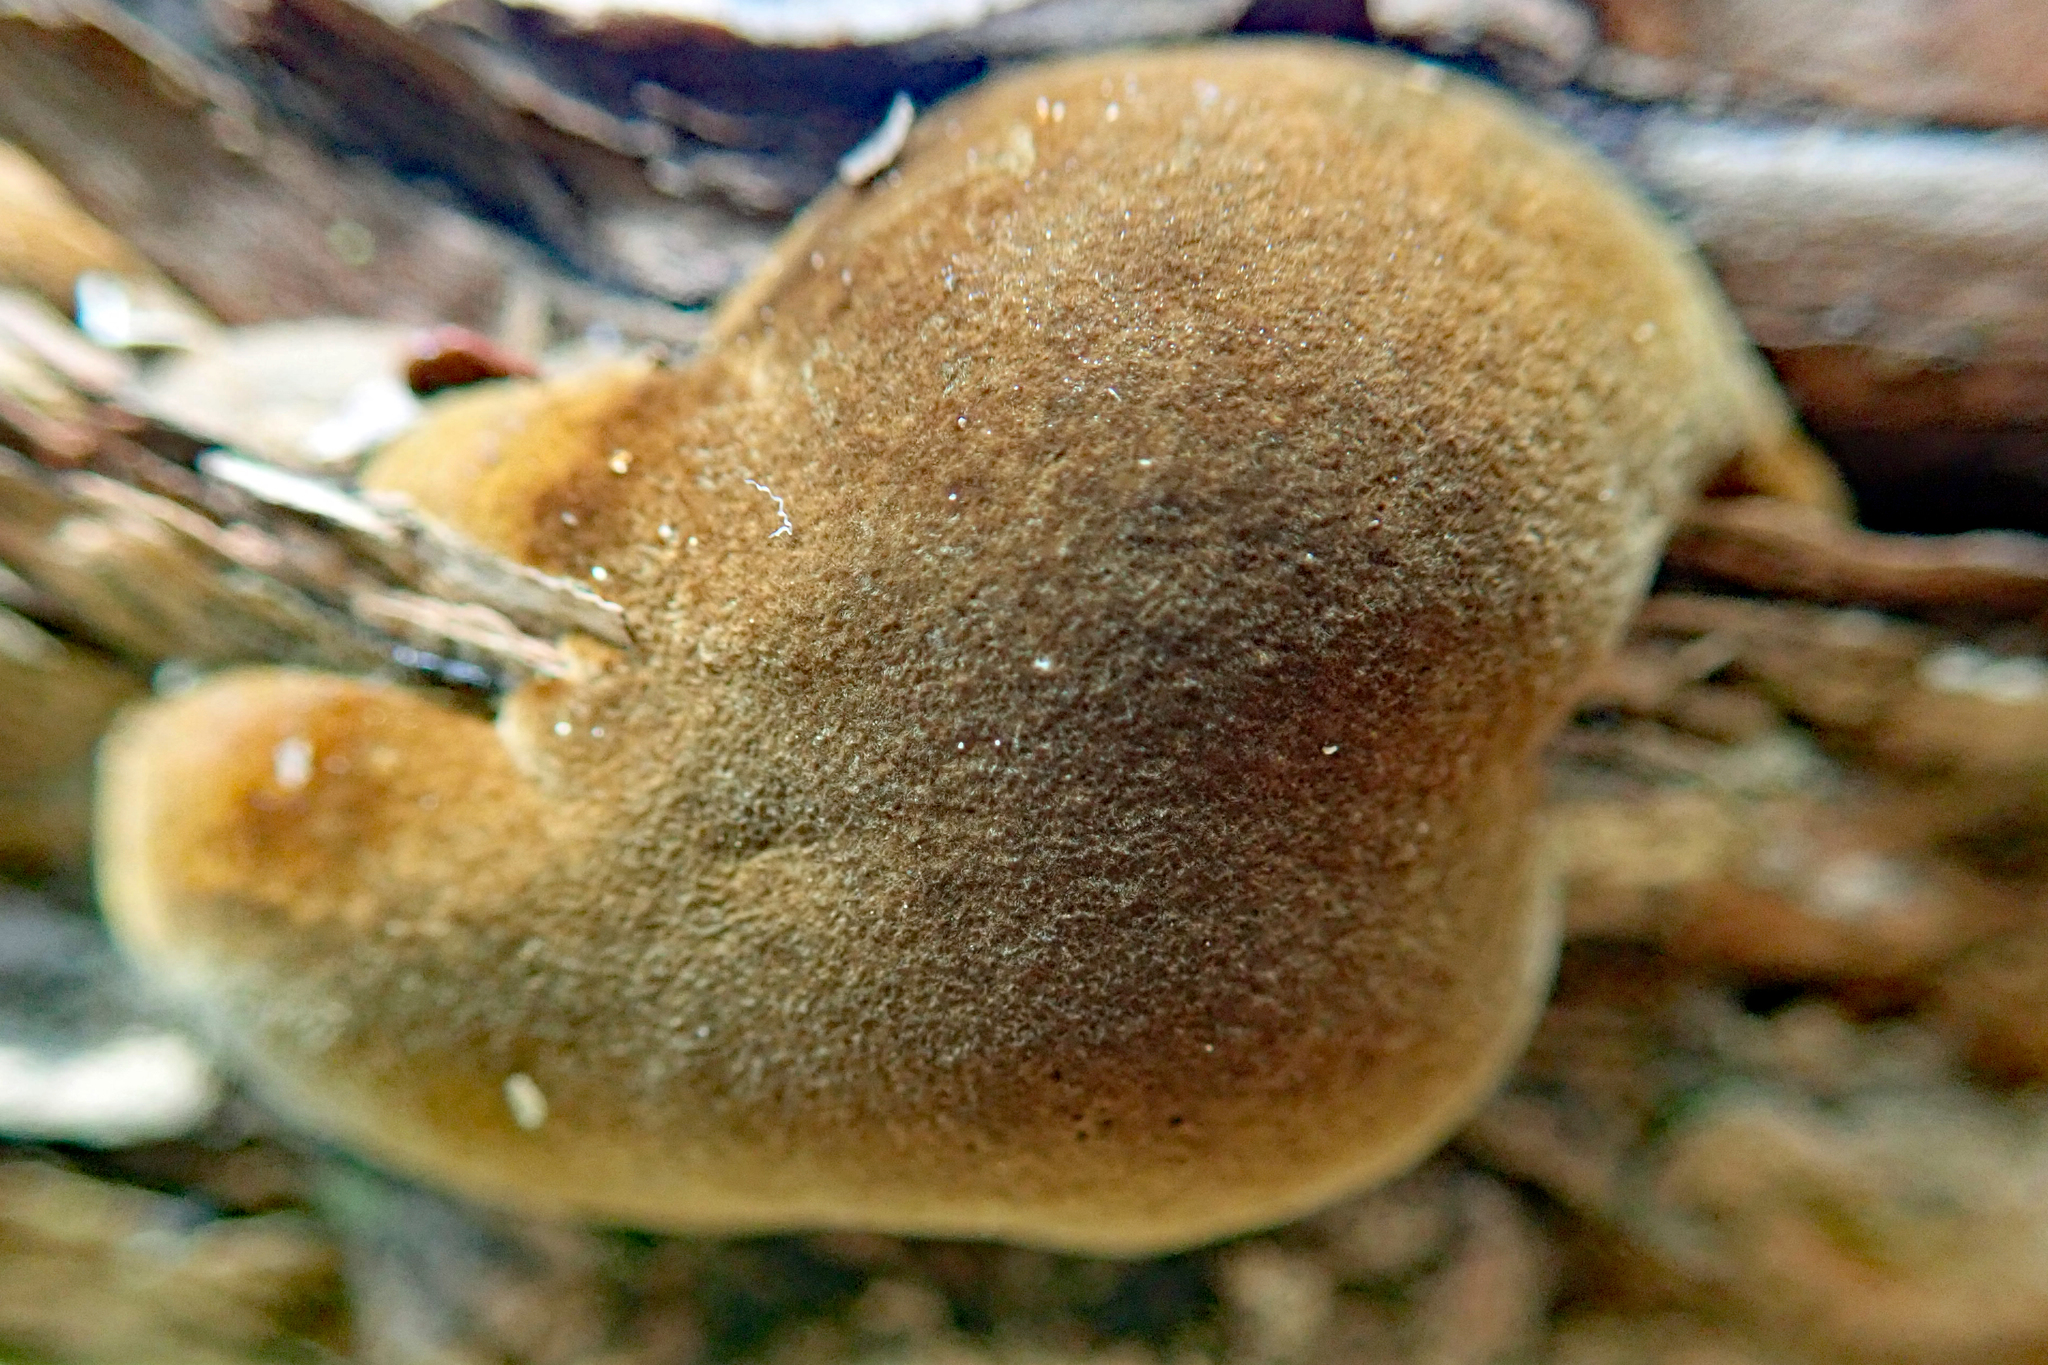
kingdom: Fungi
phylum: Basidiomycota
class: Agaricomycetes
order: Hymenochaetales
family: Hymenochaetaceae
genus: Fomitiporia
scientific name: Fomitiporia
